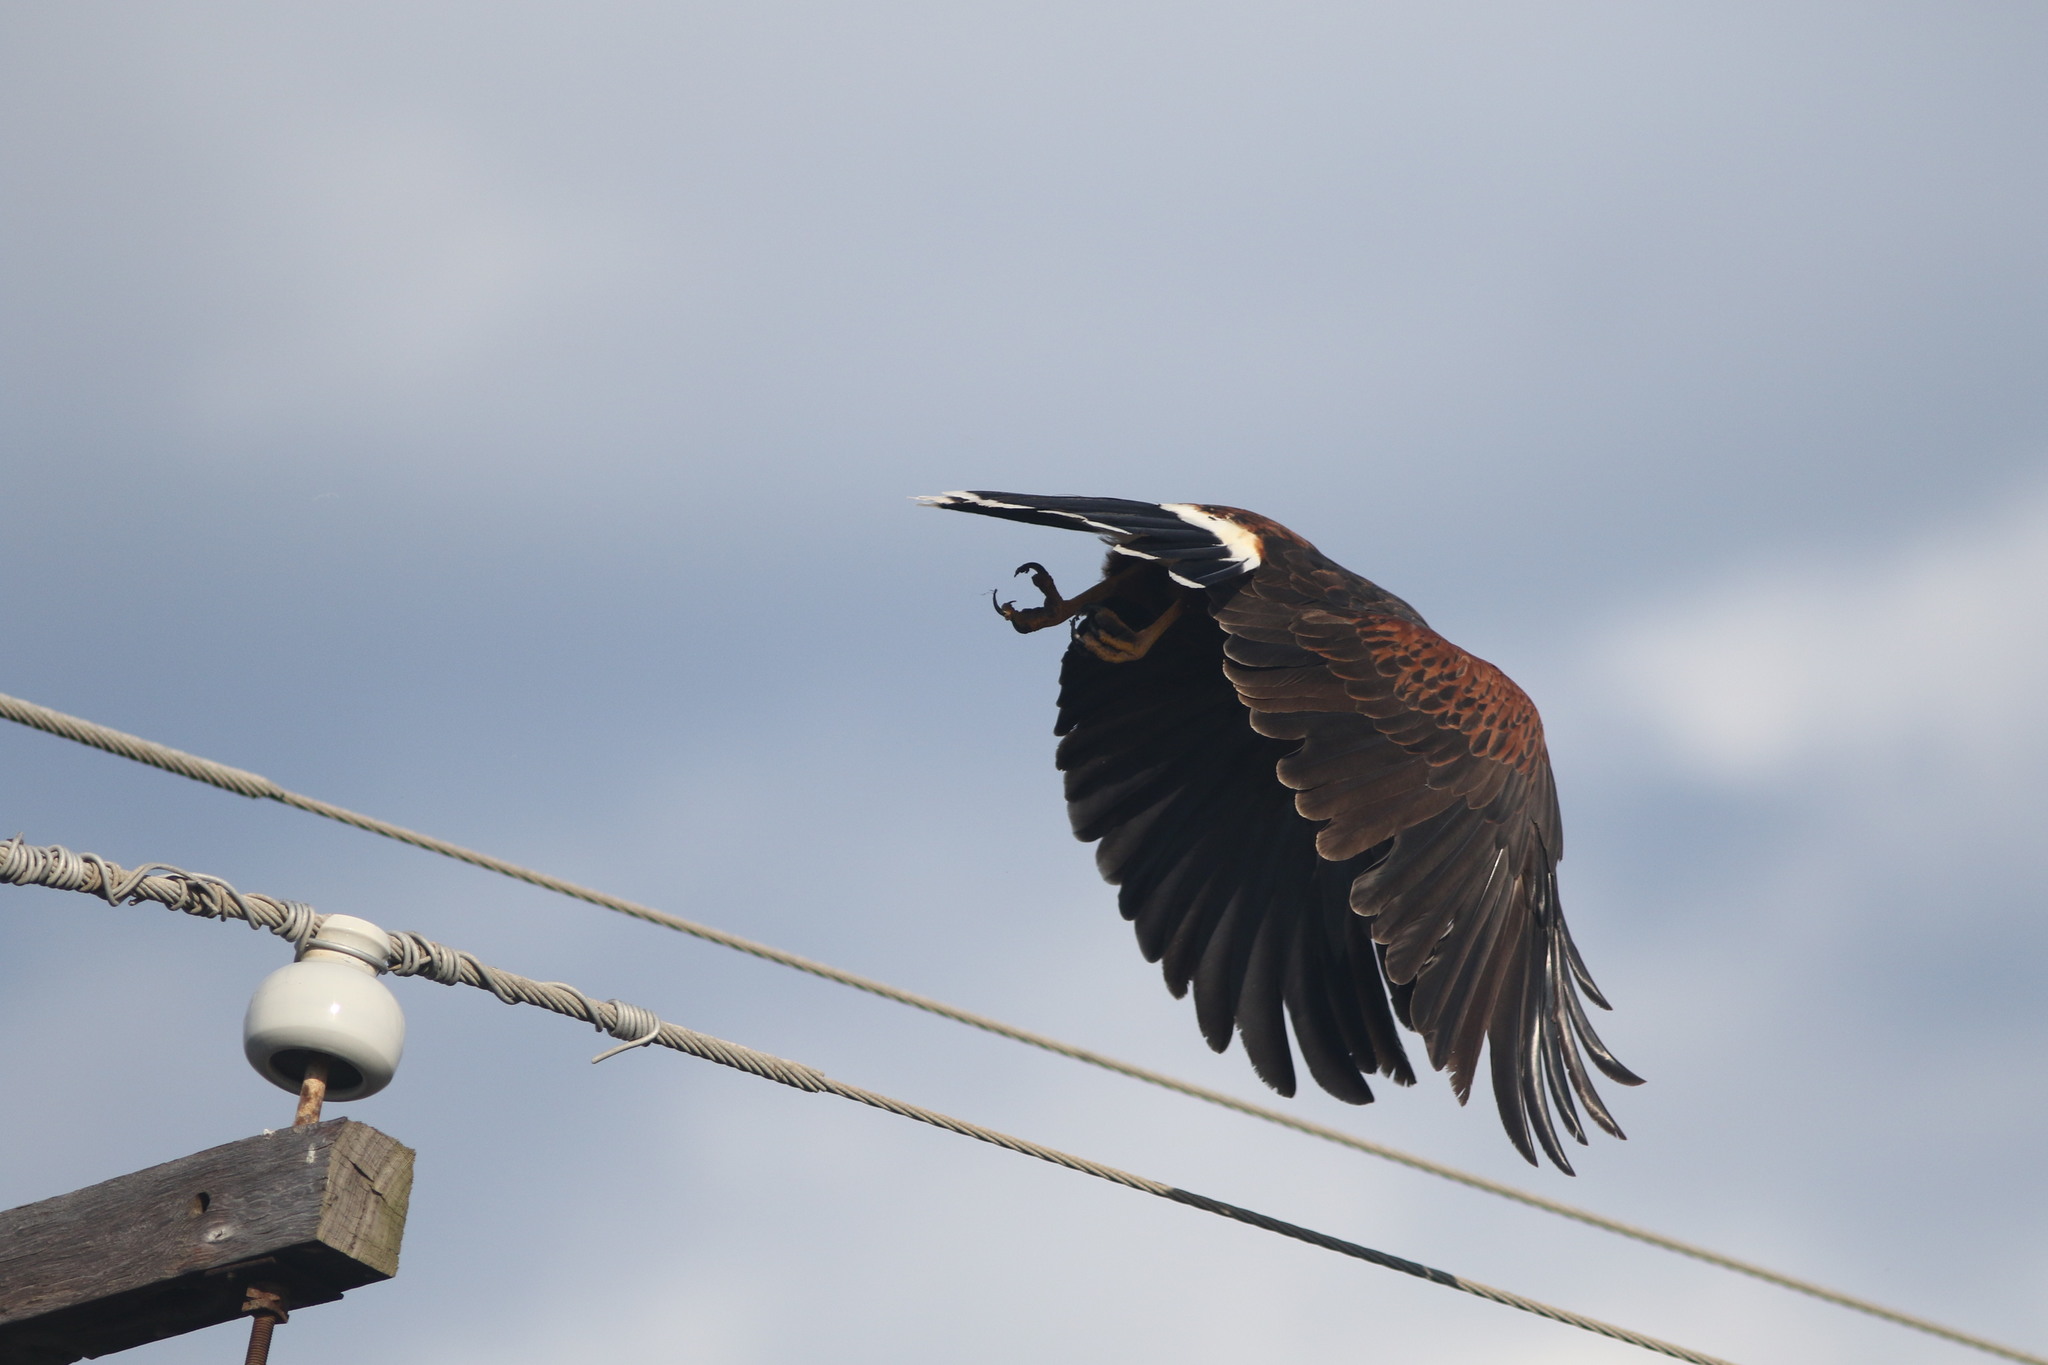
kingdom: Animalia
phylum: Chordata
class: Aves
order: Accipitriformes
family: Accipitridae
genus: Parabuteo
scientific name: Parabuteo unicinctus
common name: Harris's hawk
